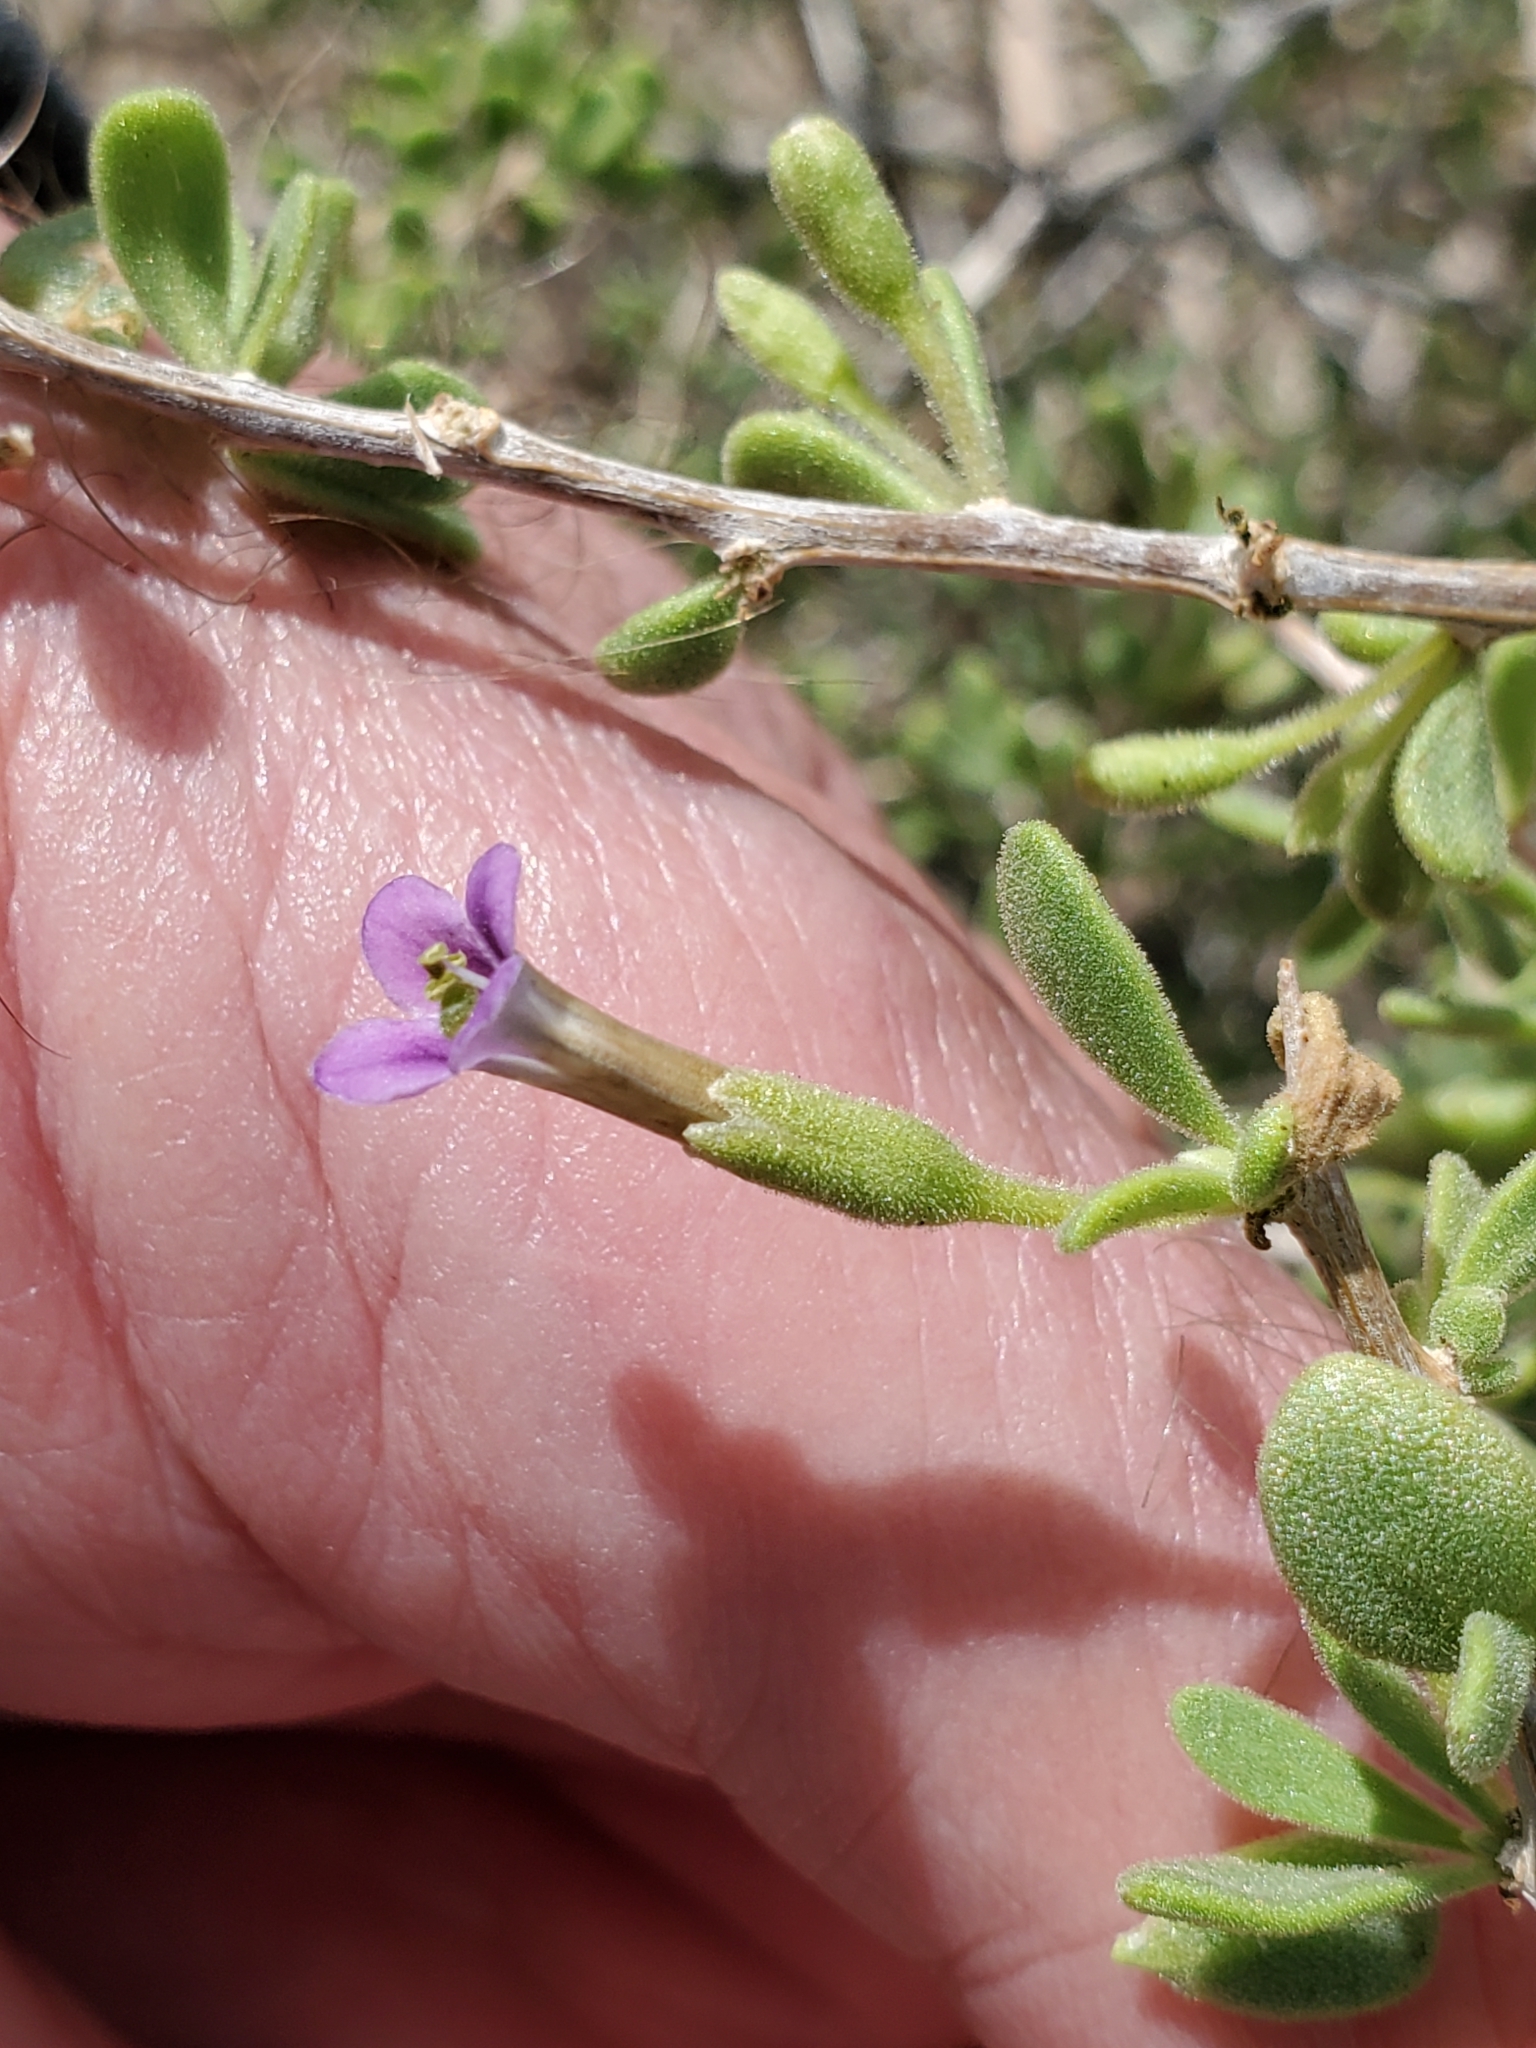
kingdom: Plantae
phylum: Tracheophyta
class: Magnoliopsida
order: Solanales
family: Solanaceae
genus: Lycium
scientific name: Lycium fremontii
